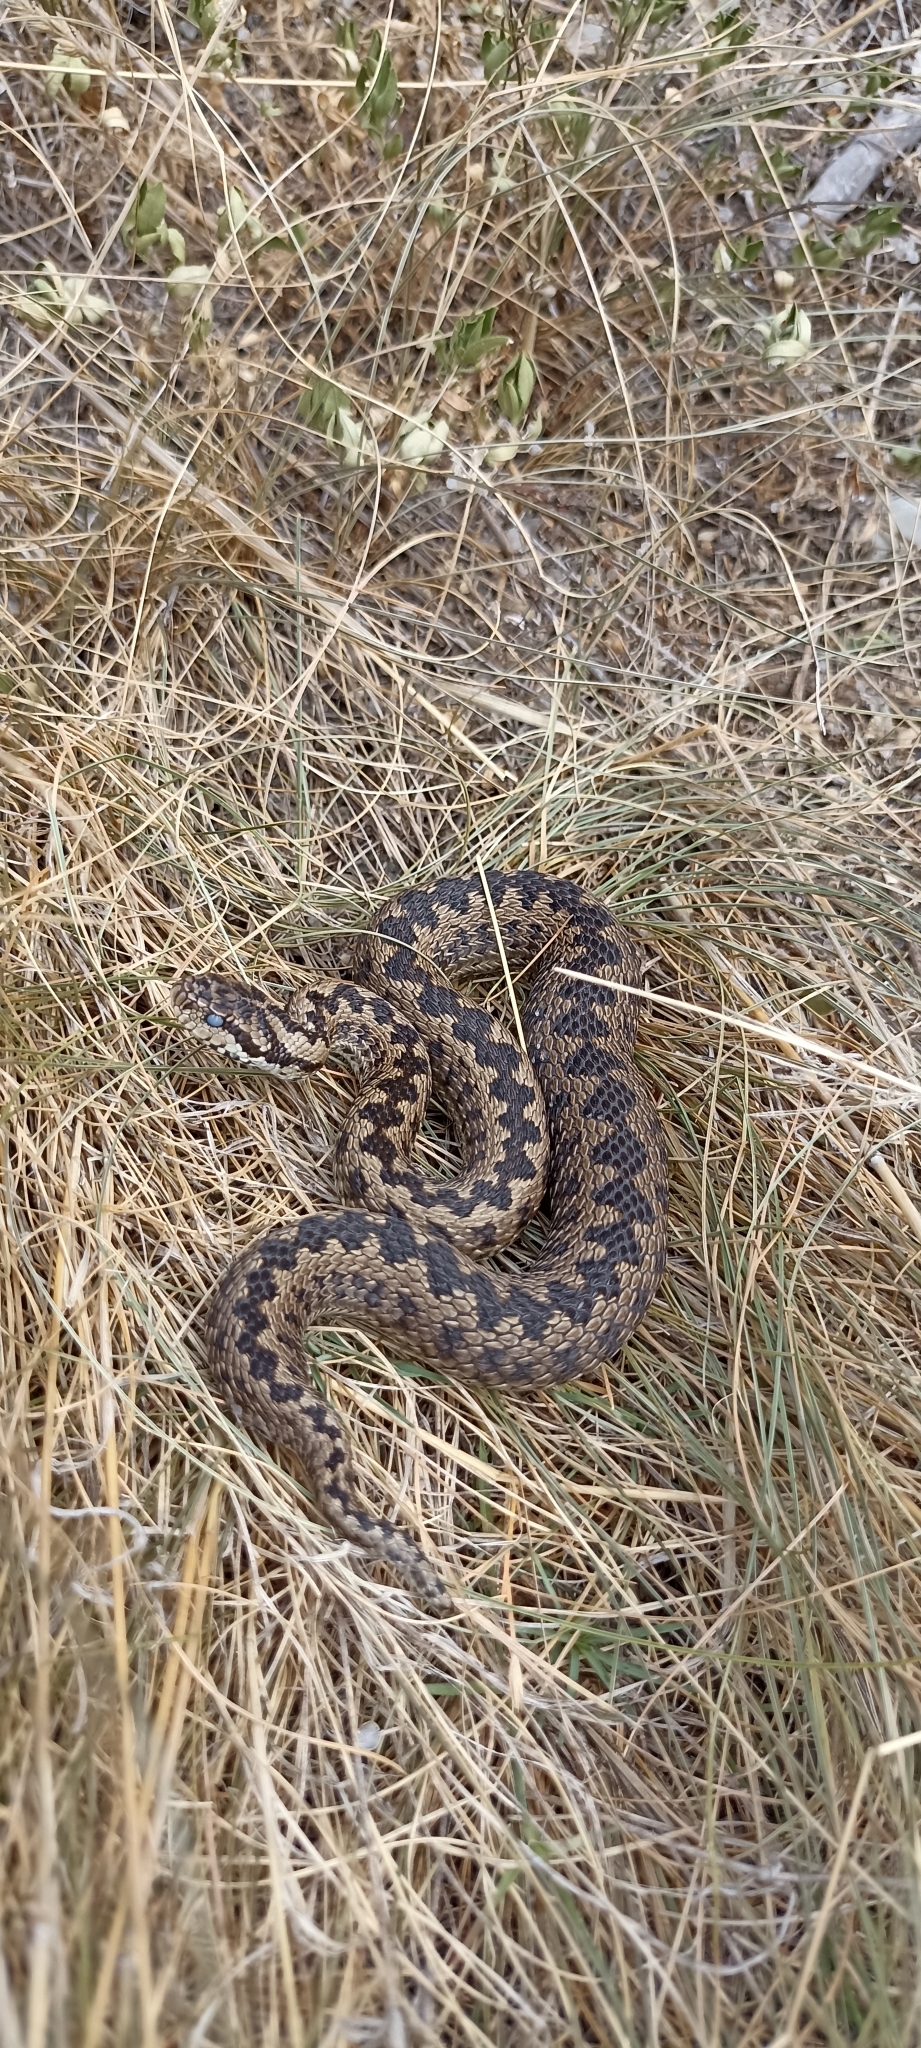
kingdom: Animalia
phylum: Chordata
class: Squamata
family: Viperidae
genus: Vipera
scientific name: Vipera ursinii
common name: Meadow viper
